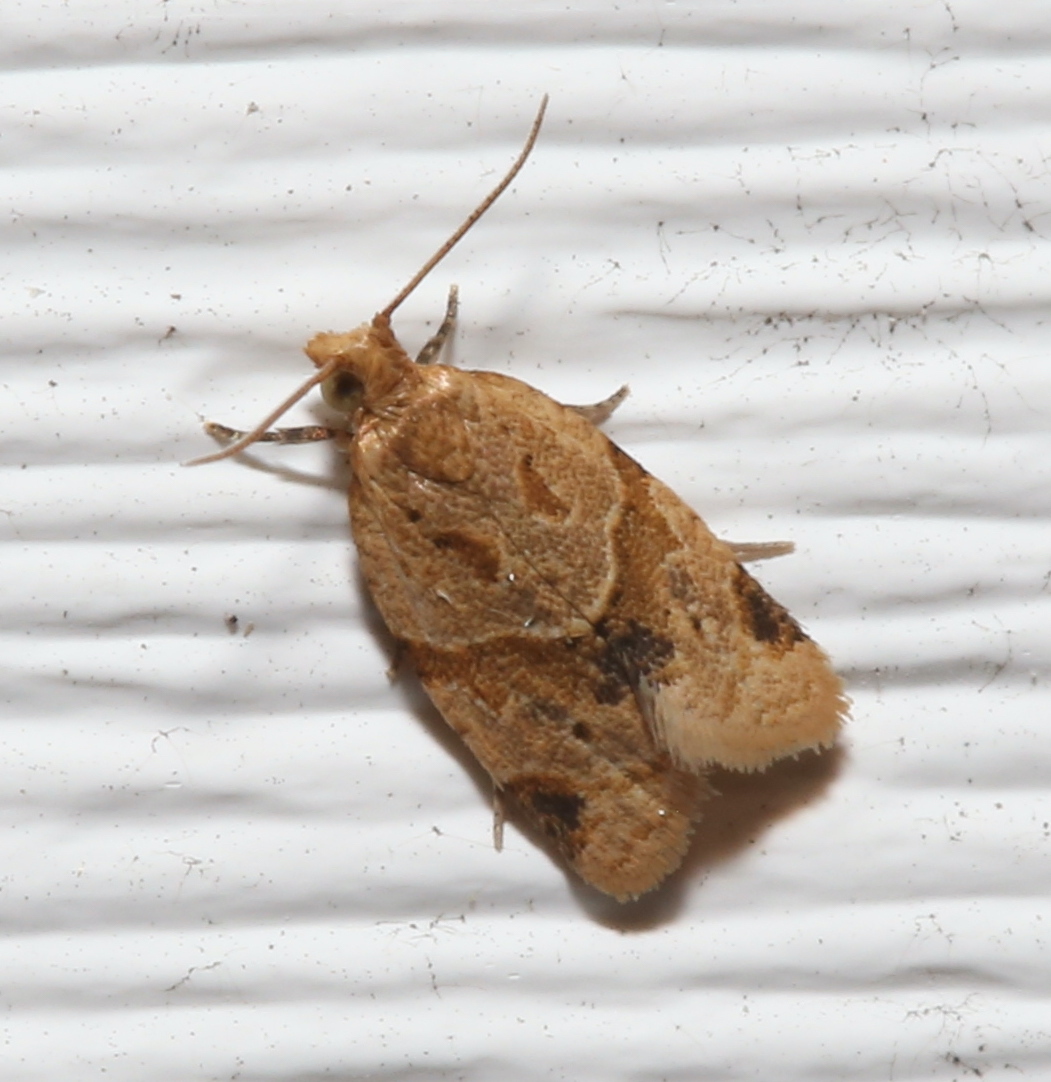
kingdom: Animalia
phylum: Arthropoda
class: Insecta
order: Lepidoptera
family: Tortricidae
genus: Clepsis
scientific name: Clepsis peritana
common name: Garden tortrix
